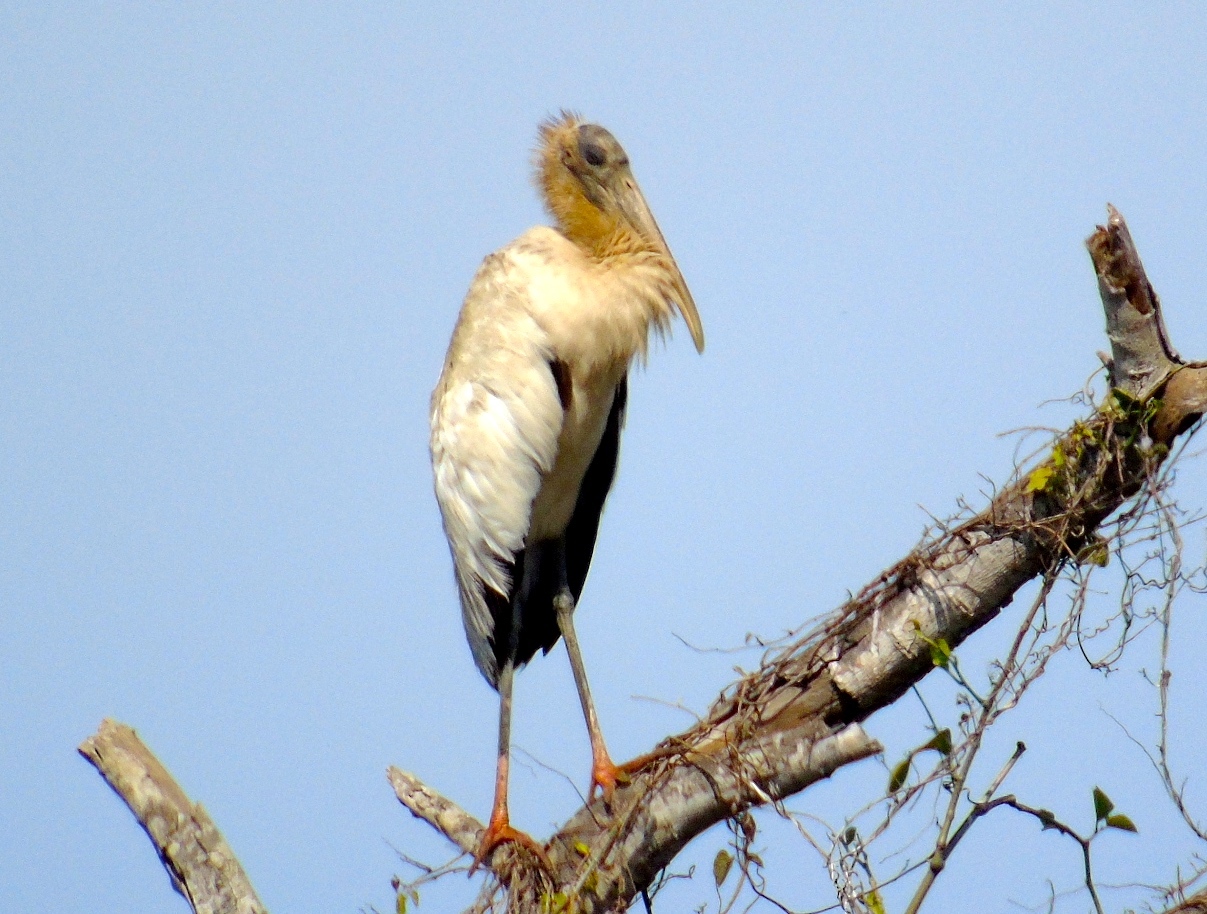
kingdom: Animalia
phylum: Chordata
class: Aves
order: Ciconiiformes
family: Ciconiidae
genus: Mycteria
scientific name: Mycteria americana
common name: Wood stork
